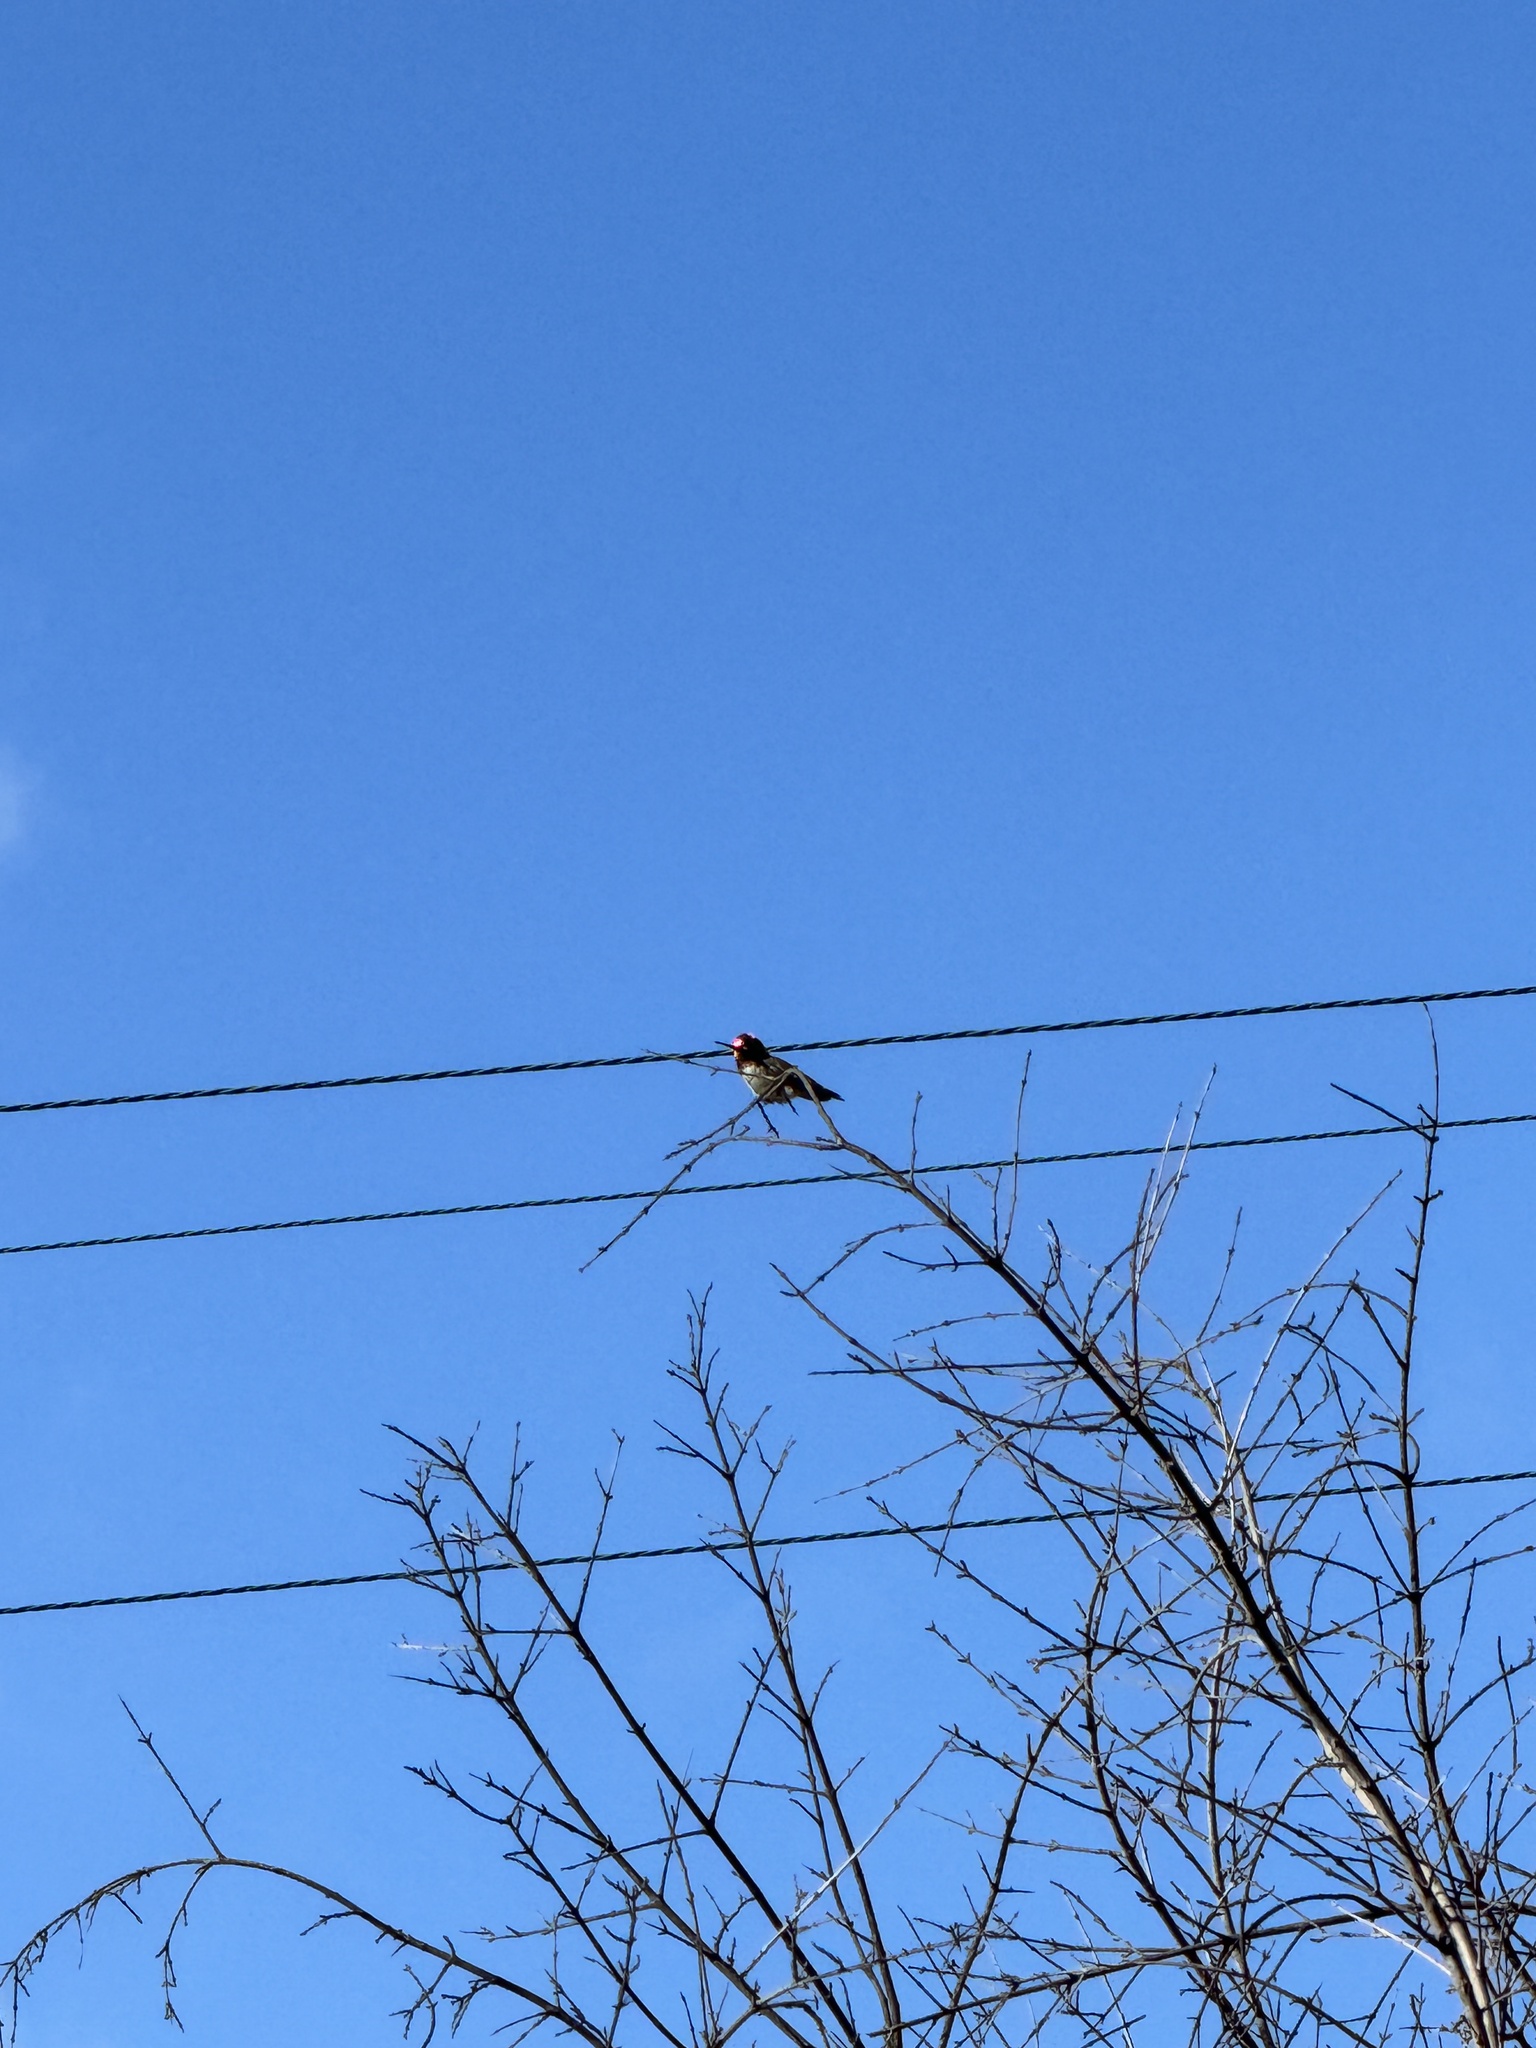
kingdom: Animalia
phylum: Chordata
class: Aves
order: Apodiformes
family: Trochilidae
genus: Calypte
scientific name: Calypte anna
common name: Anna's hummingbird
